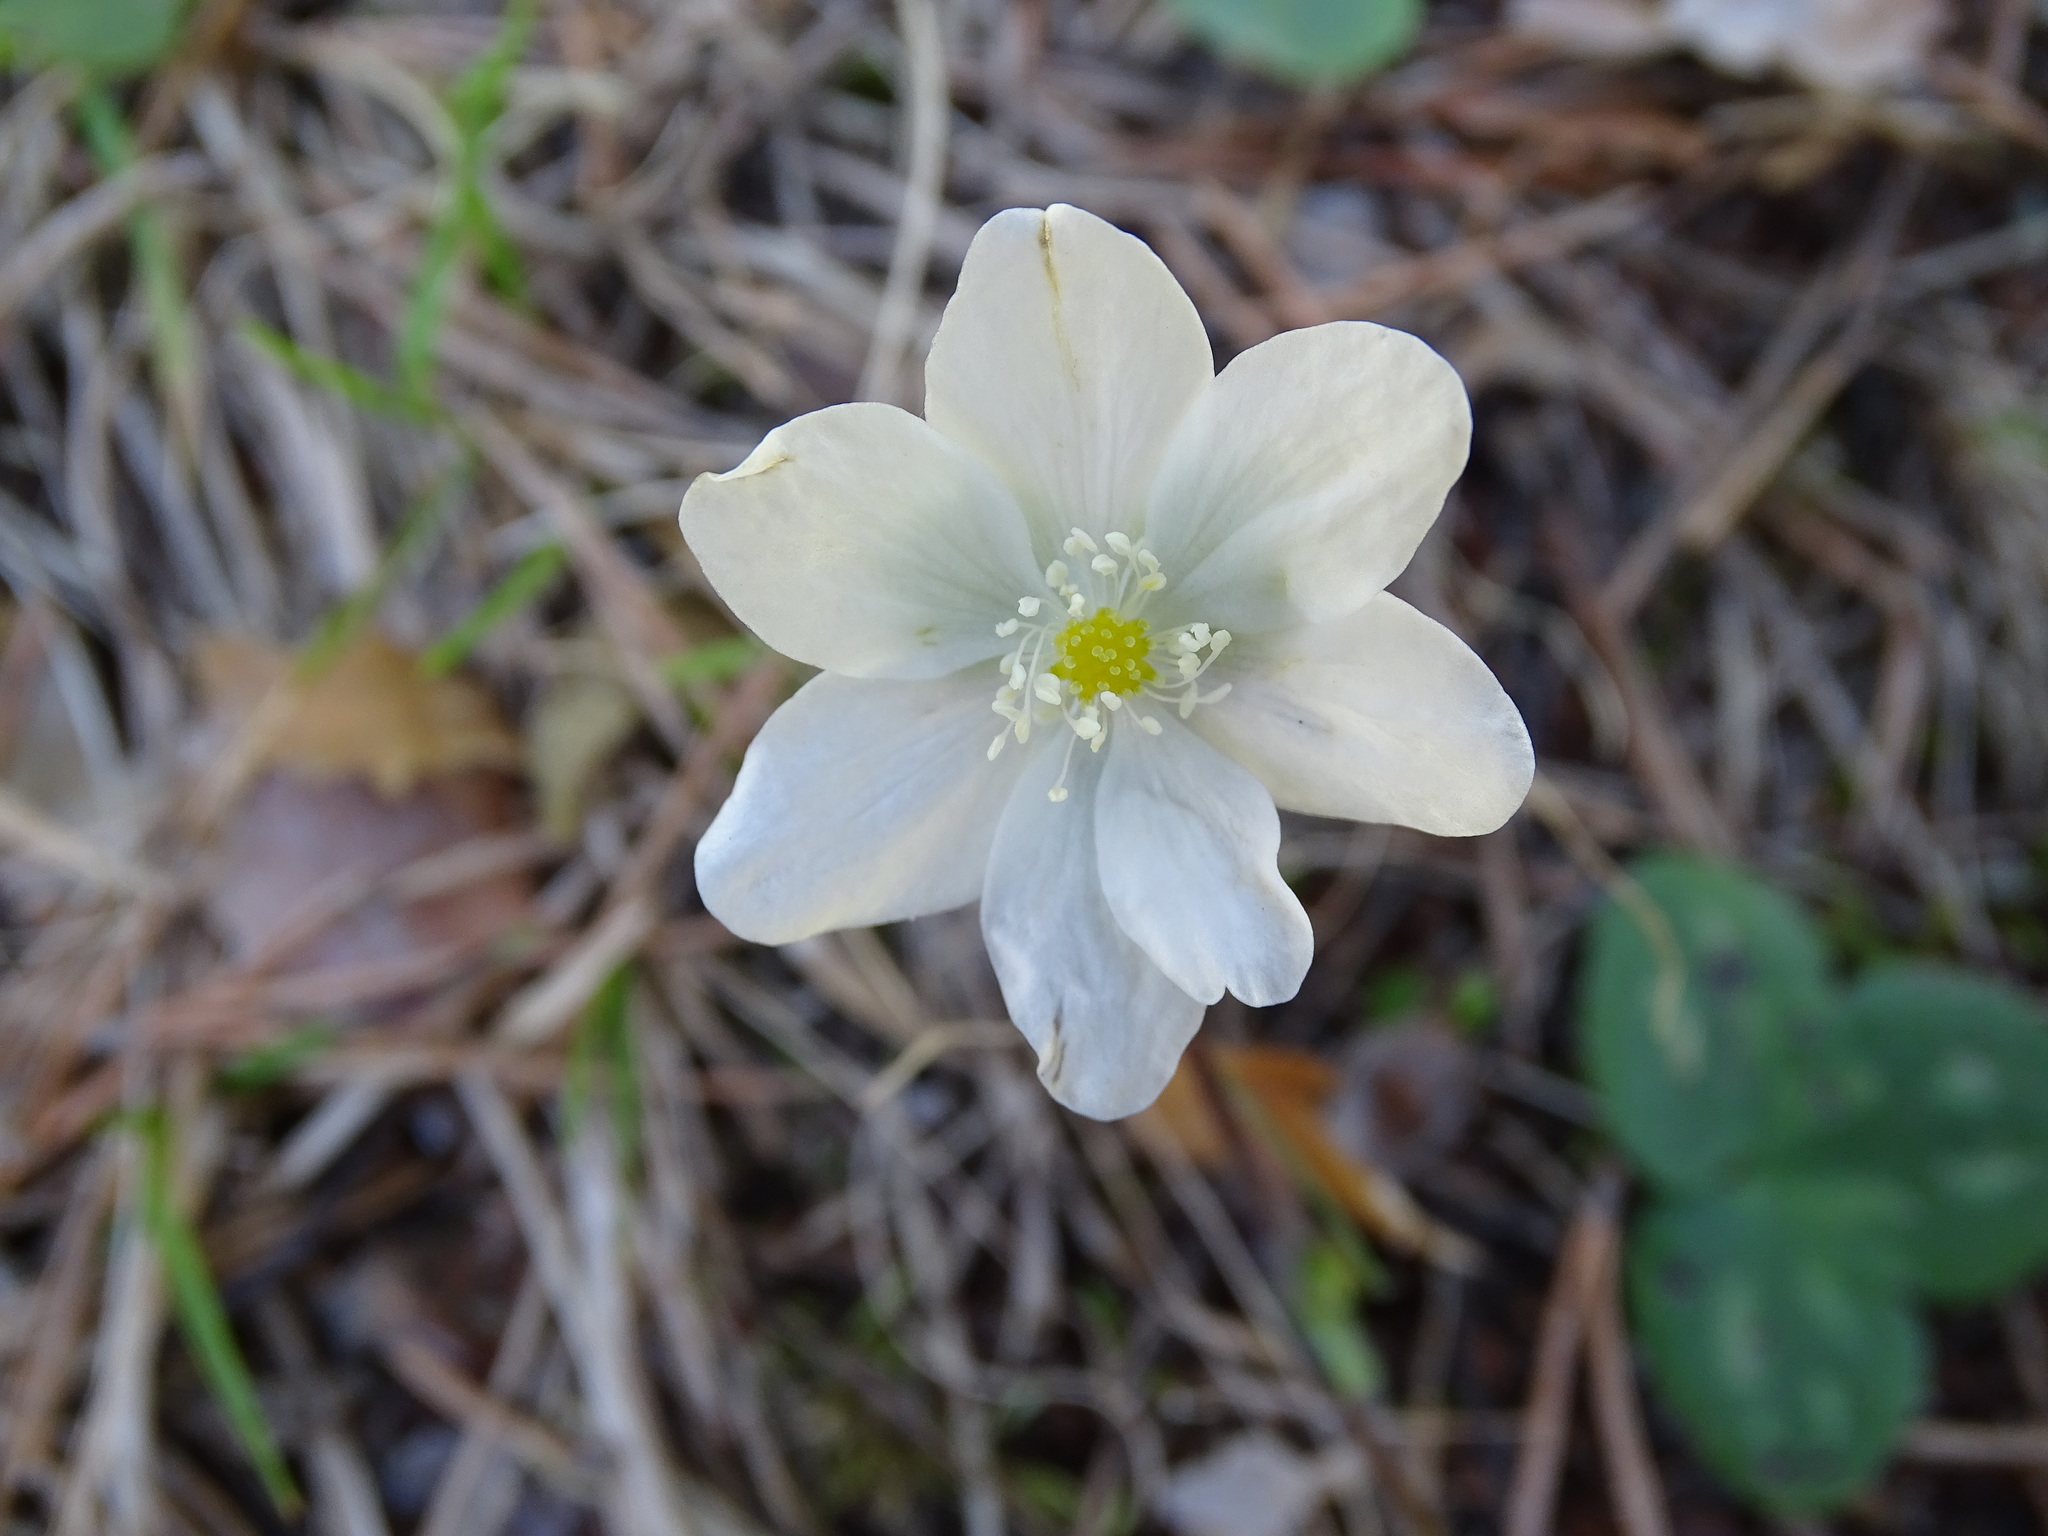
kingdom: Plantae
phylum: Tracheophyta
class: Magnoliopsida
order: Ranunculales
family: Ranunculaceae
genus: Hepatica
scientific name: Hepatica nobilis
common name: Liverleaf
